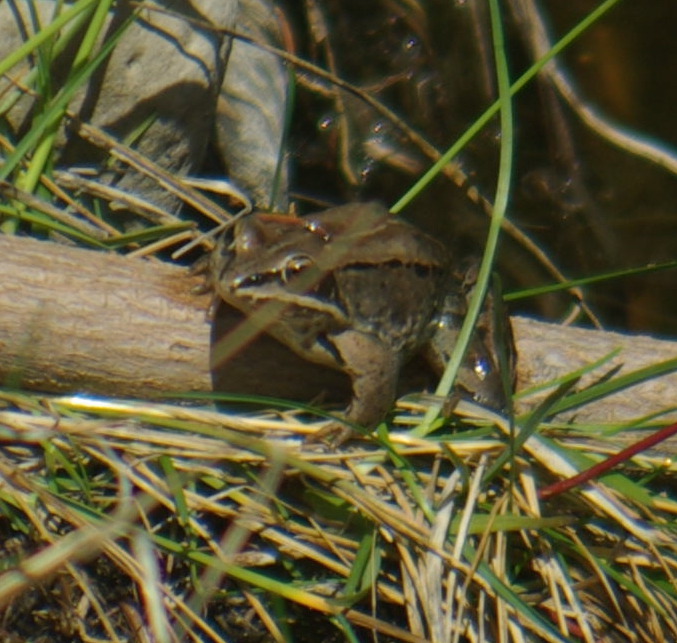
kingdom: Animalia
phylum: Chordata
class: Amphibia
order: Anura
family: Ranidae
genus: Lithobates
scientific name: Lithobates sylvaticus
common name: Wood frog
